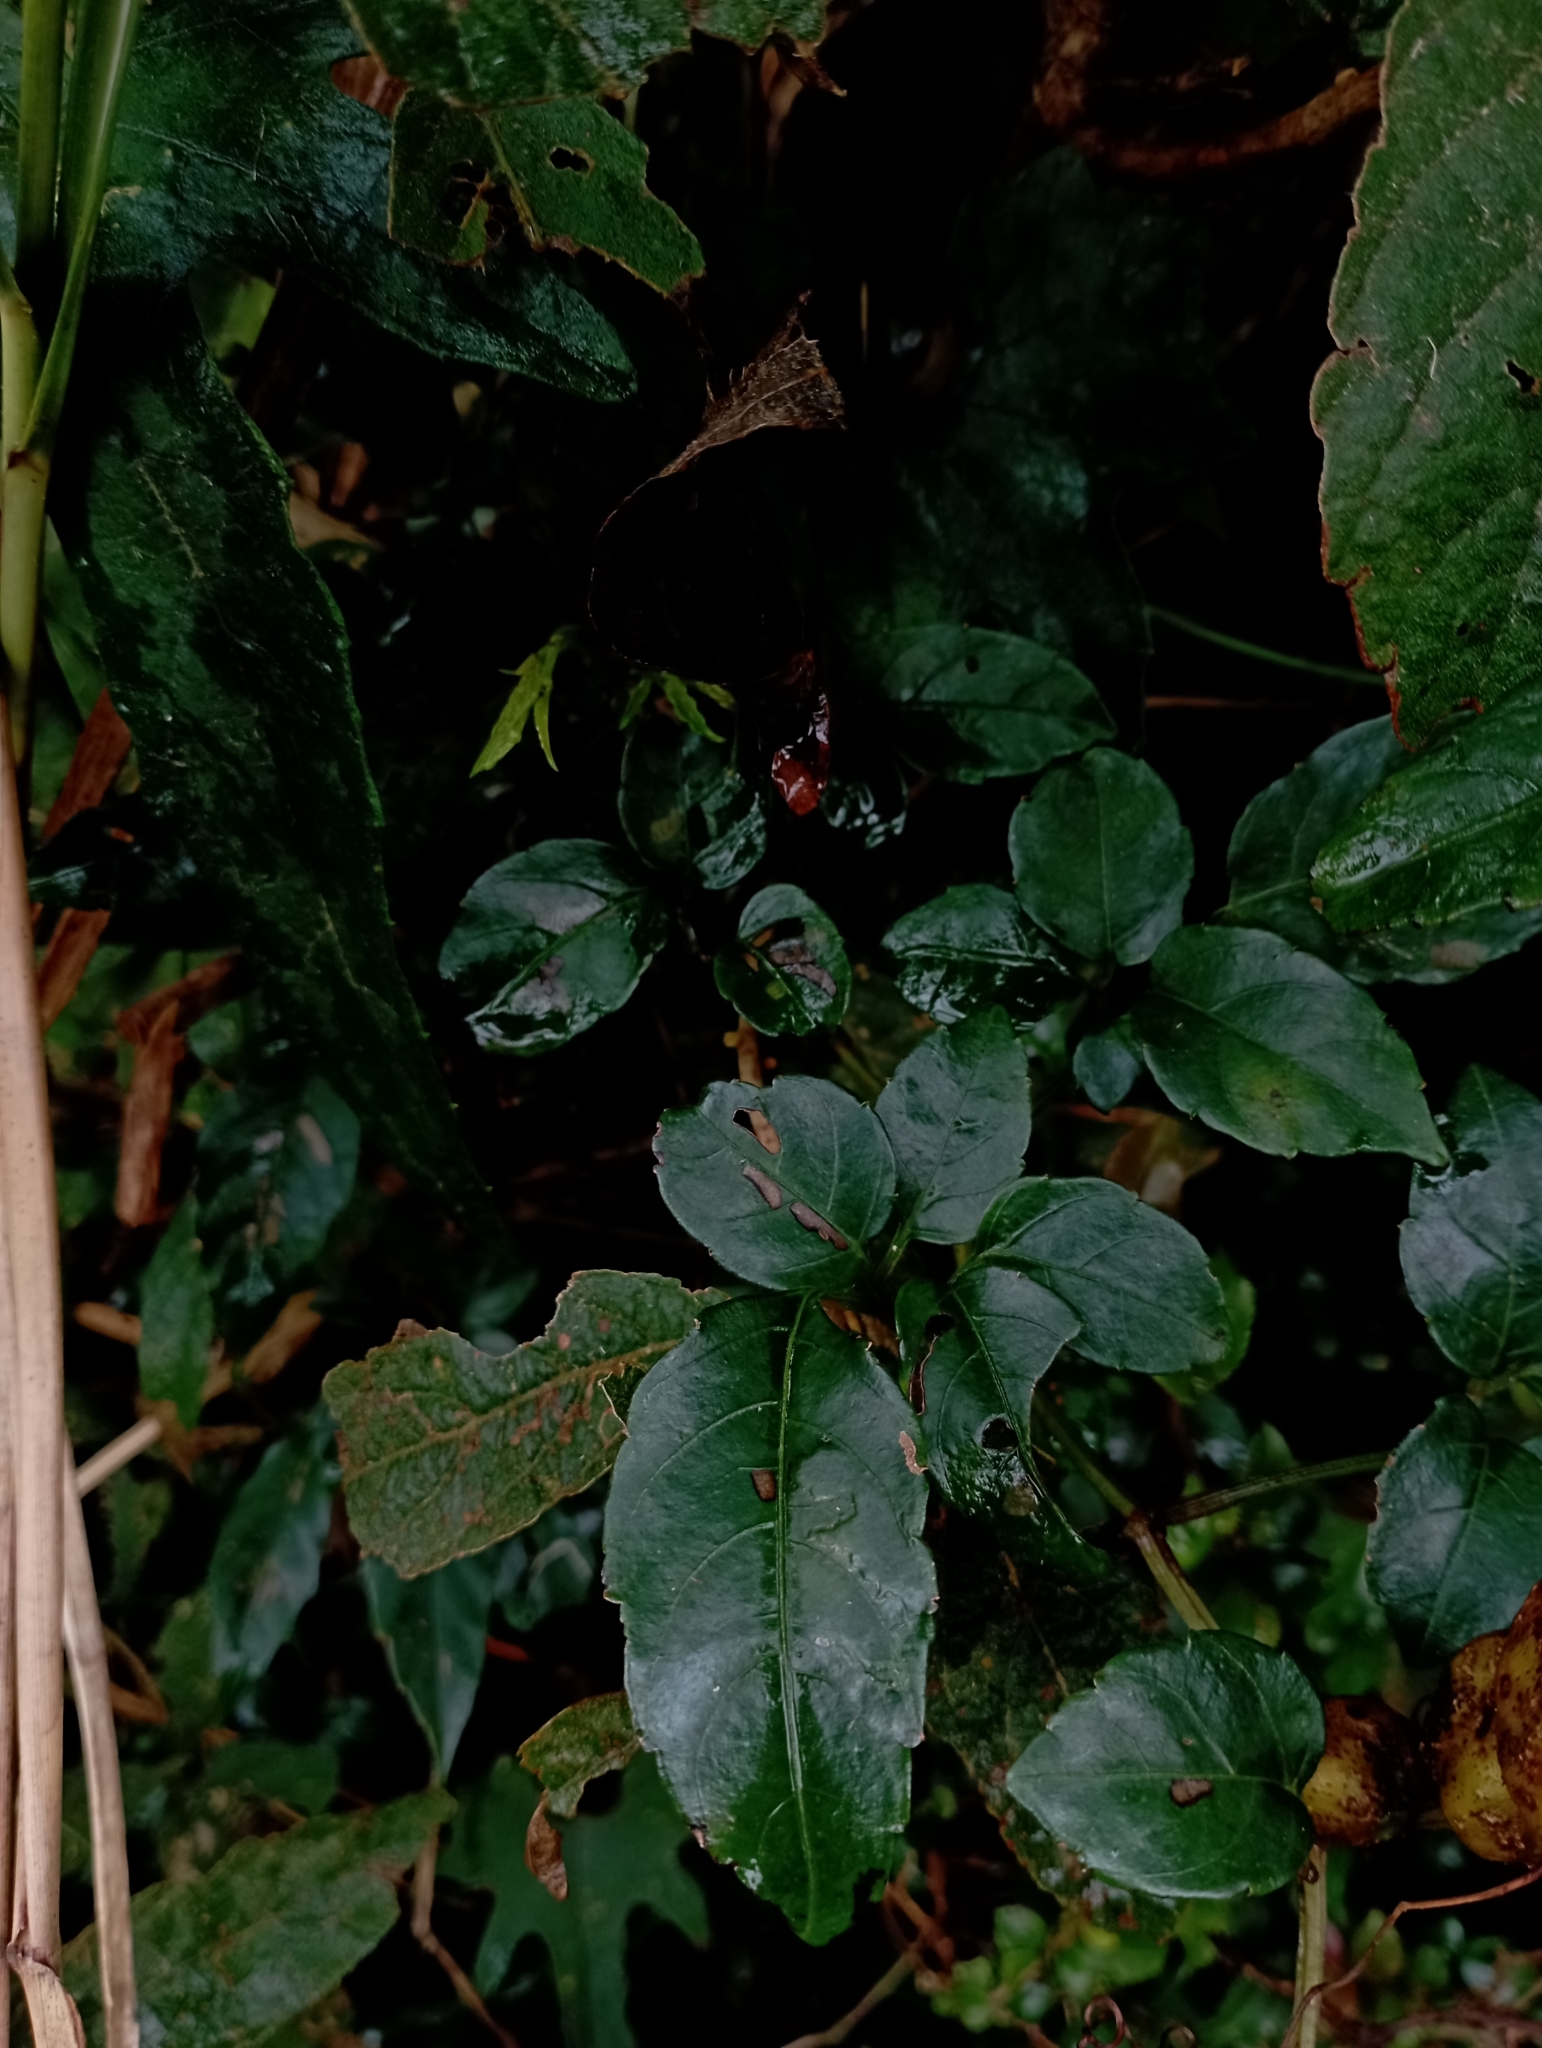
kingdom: Plantae
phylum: Tracheophyta
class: Magnoliopsida
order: Vitales
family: Vitaceae
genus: Causonis
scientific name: Causonis corniculata
